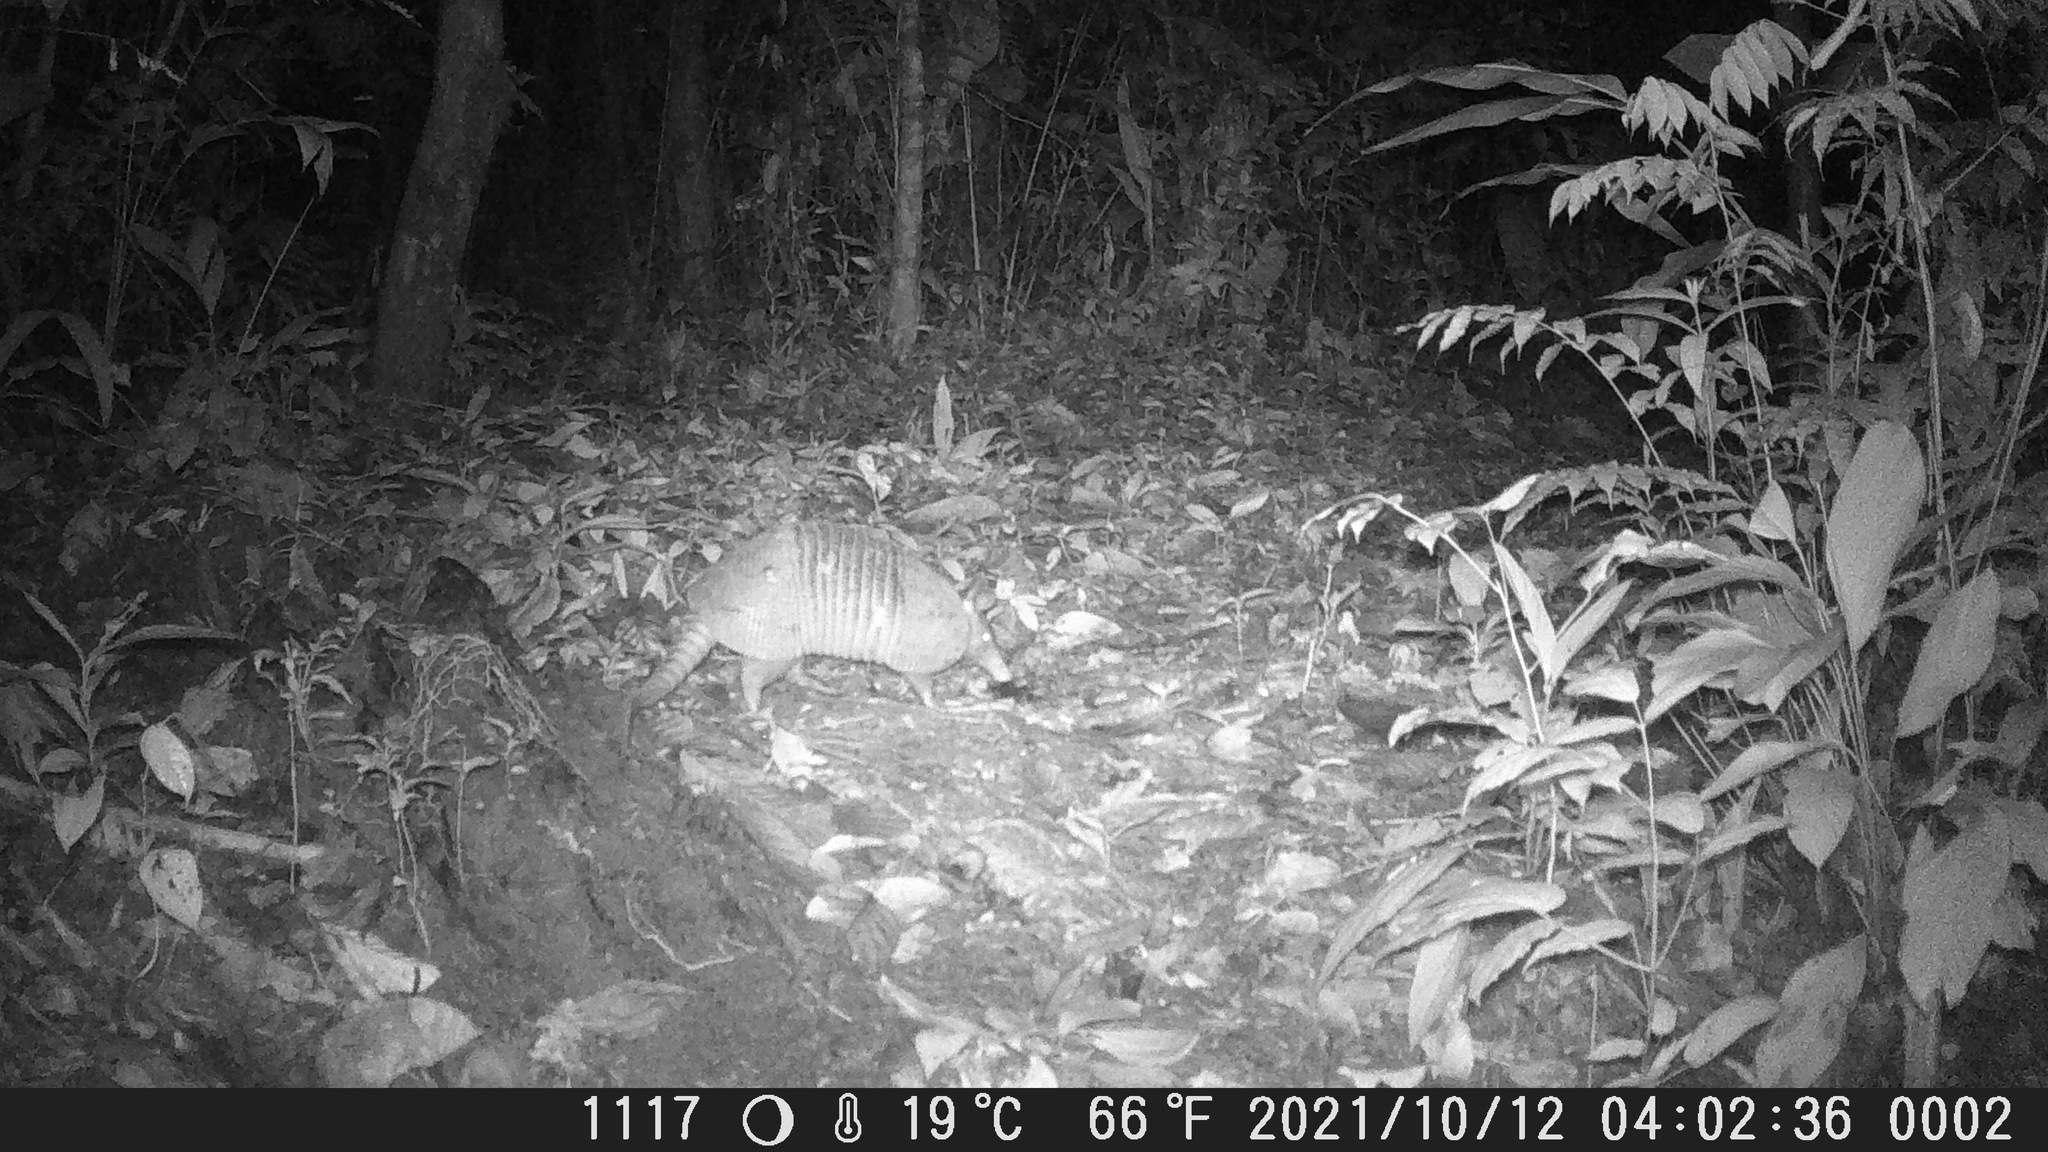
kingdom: Animalia
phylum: Chordata
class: Mammalia
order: Cingulata
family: Dasypodidae
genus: Dasypus
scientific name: Dasypus novemcinctus
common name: Nine-banded armadillo
